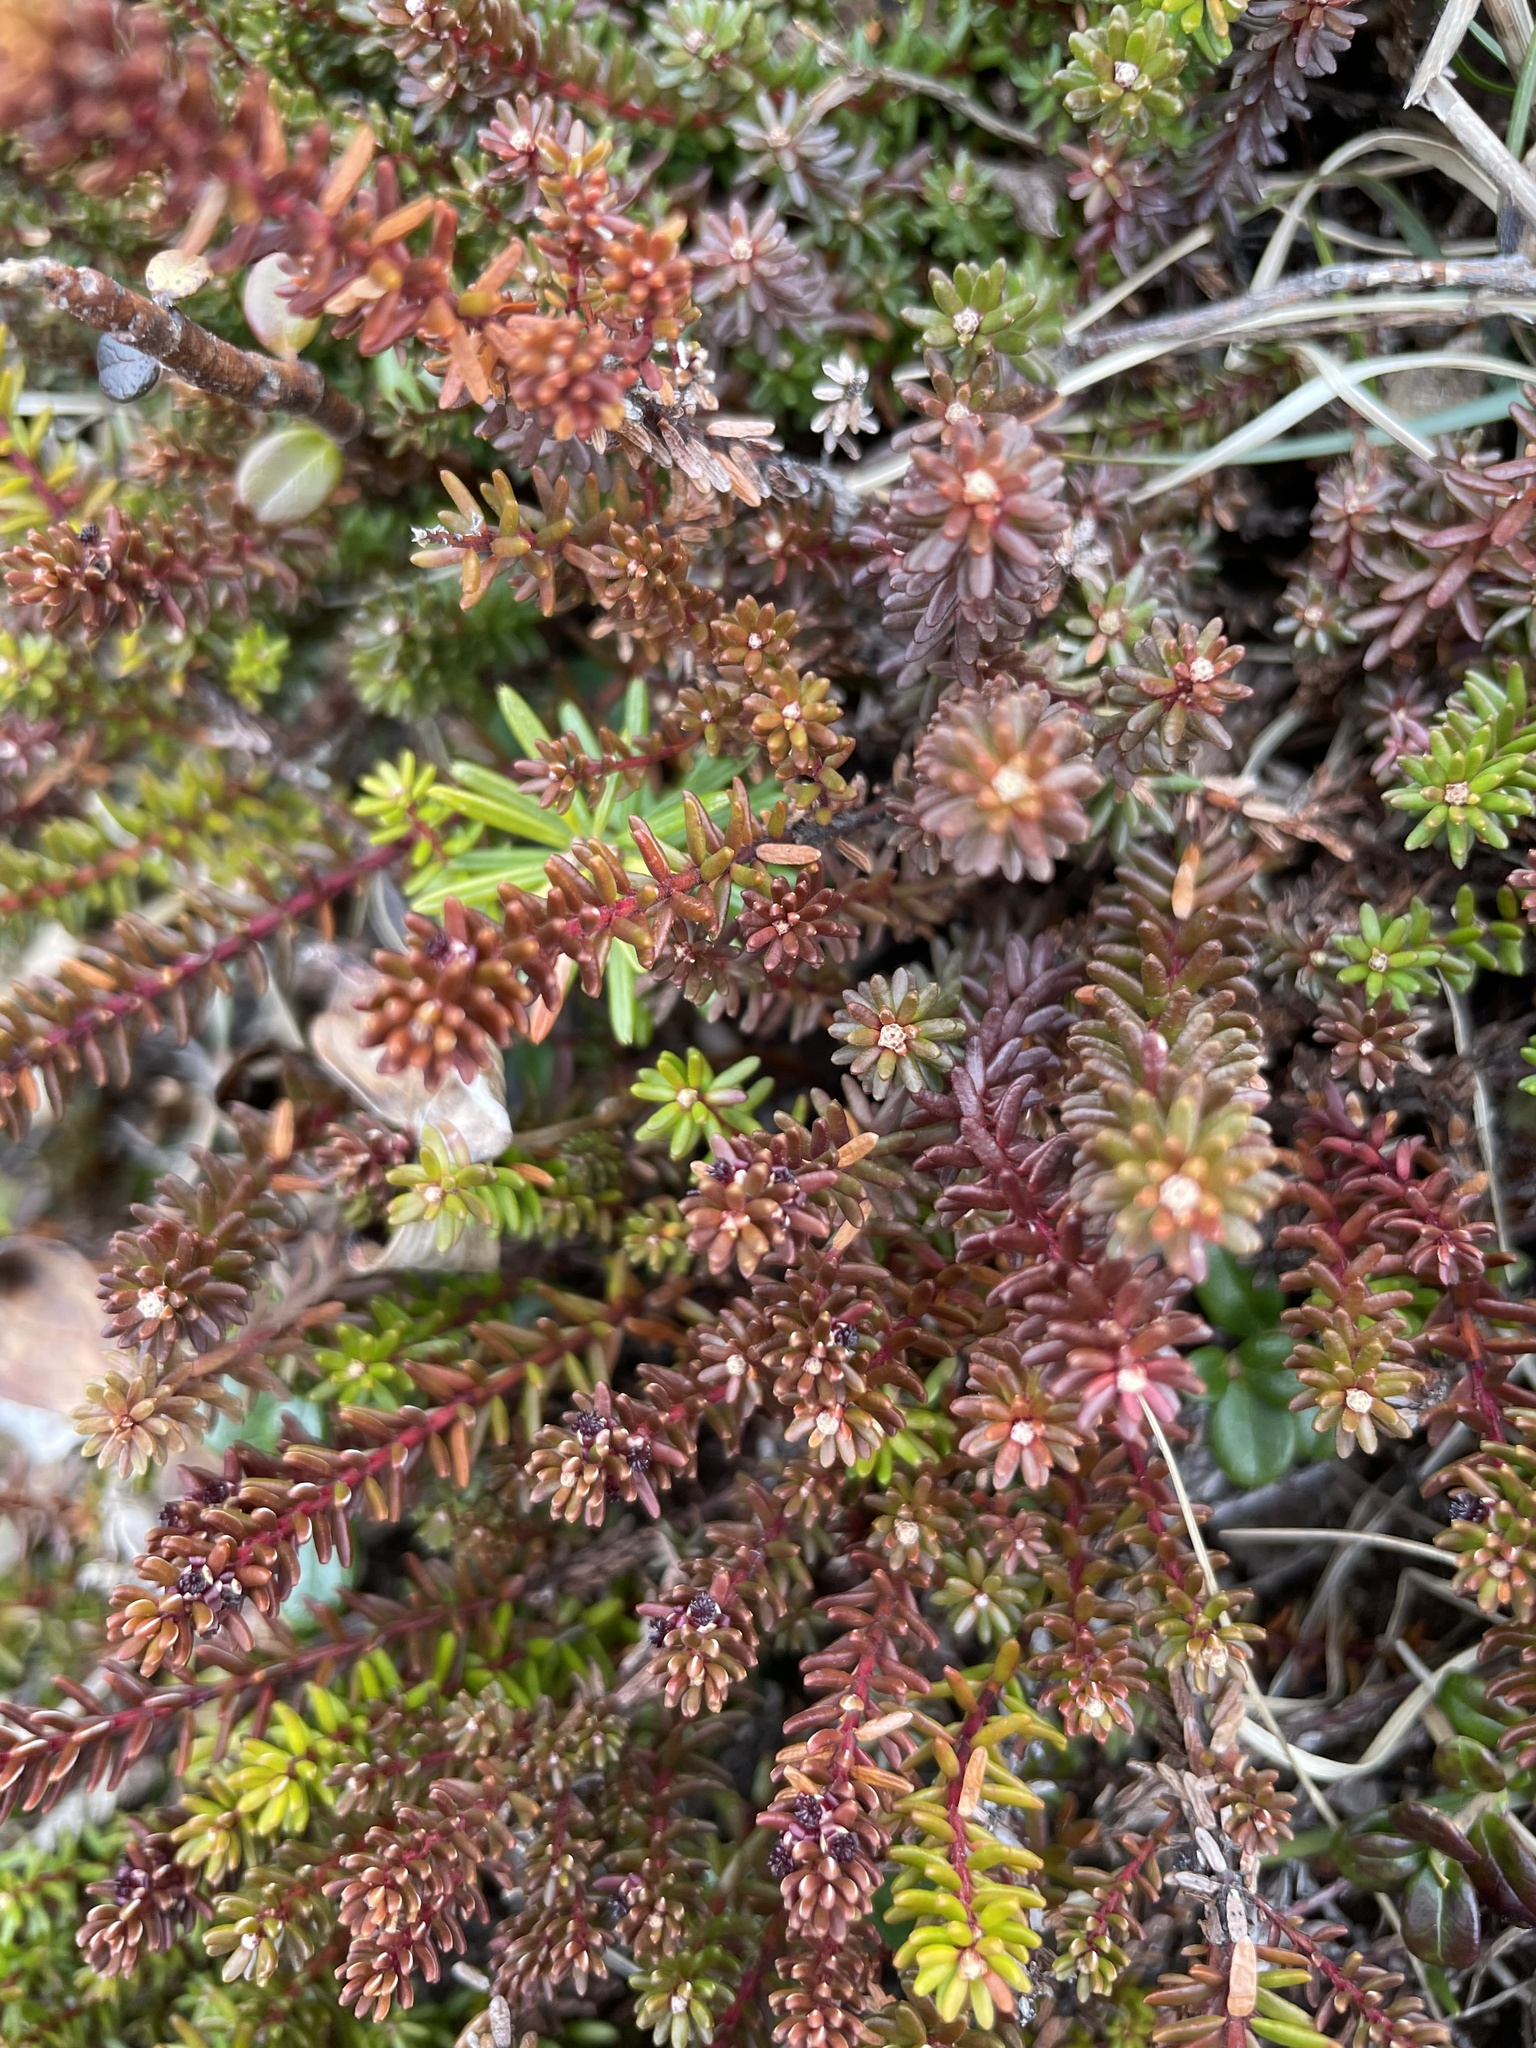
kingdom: Plantae
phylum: Tracheophyta
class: Magnoliopsida
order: Ericales
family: Ericaceae
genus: Empetrum
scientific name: Empetrum nigrum
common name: Black crowberry
